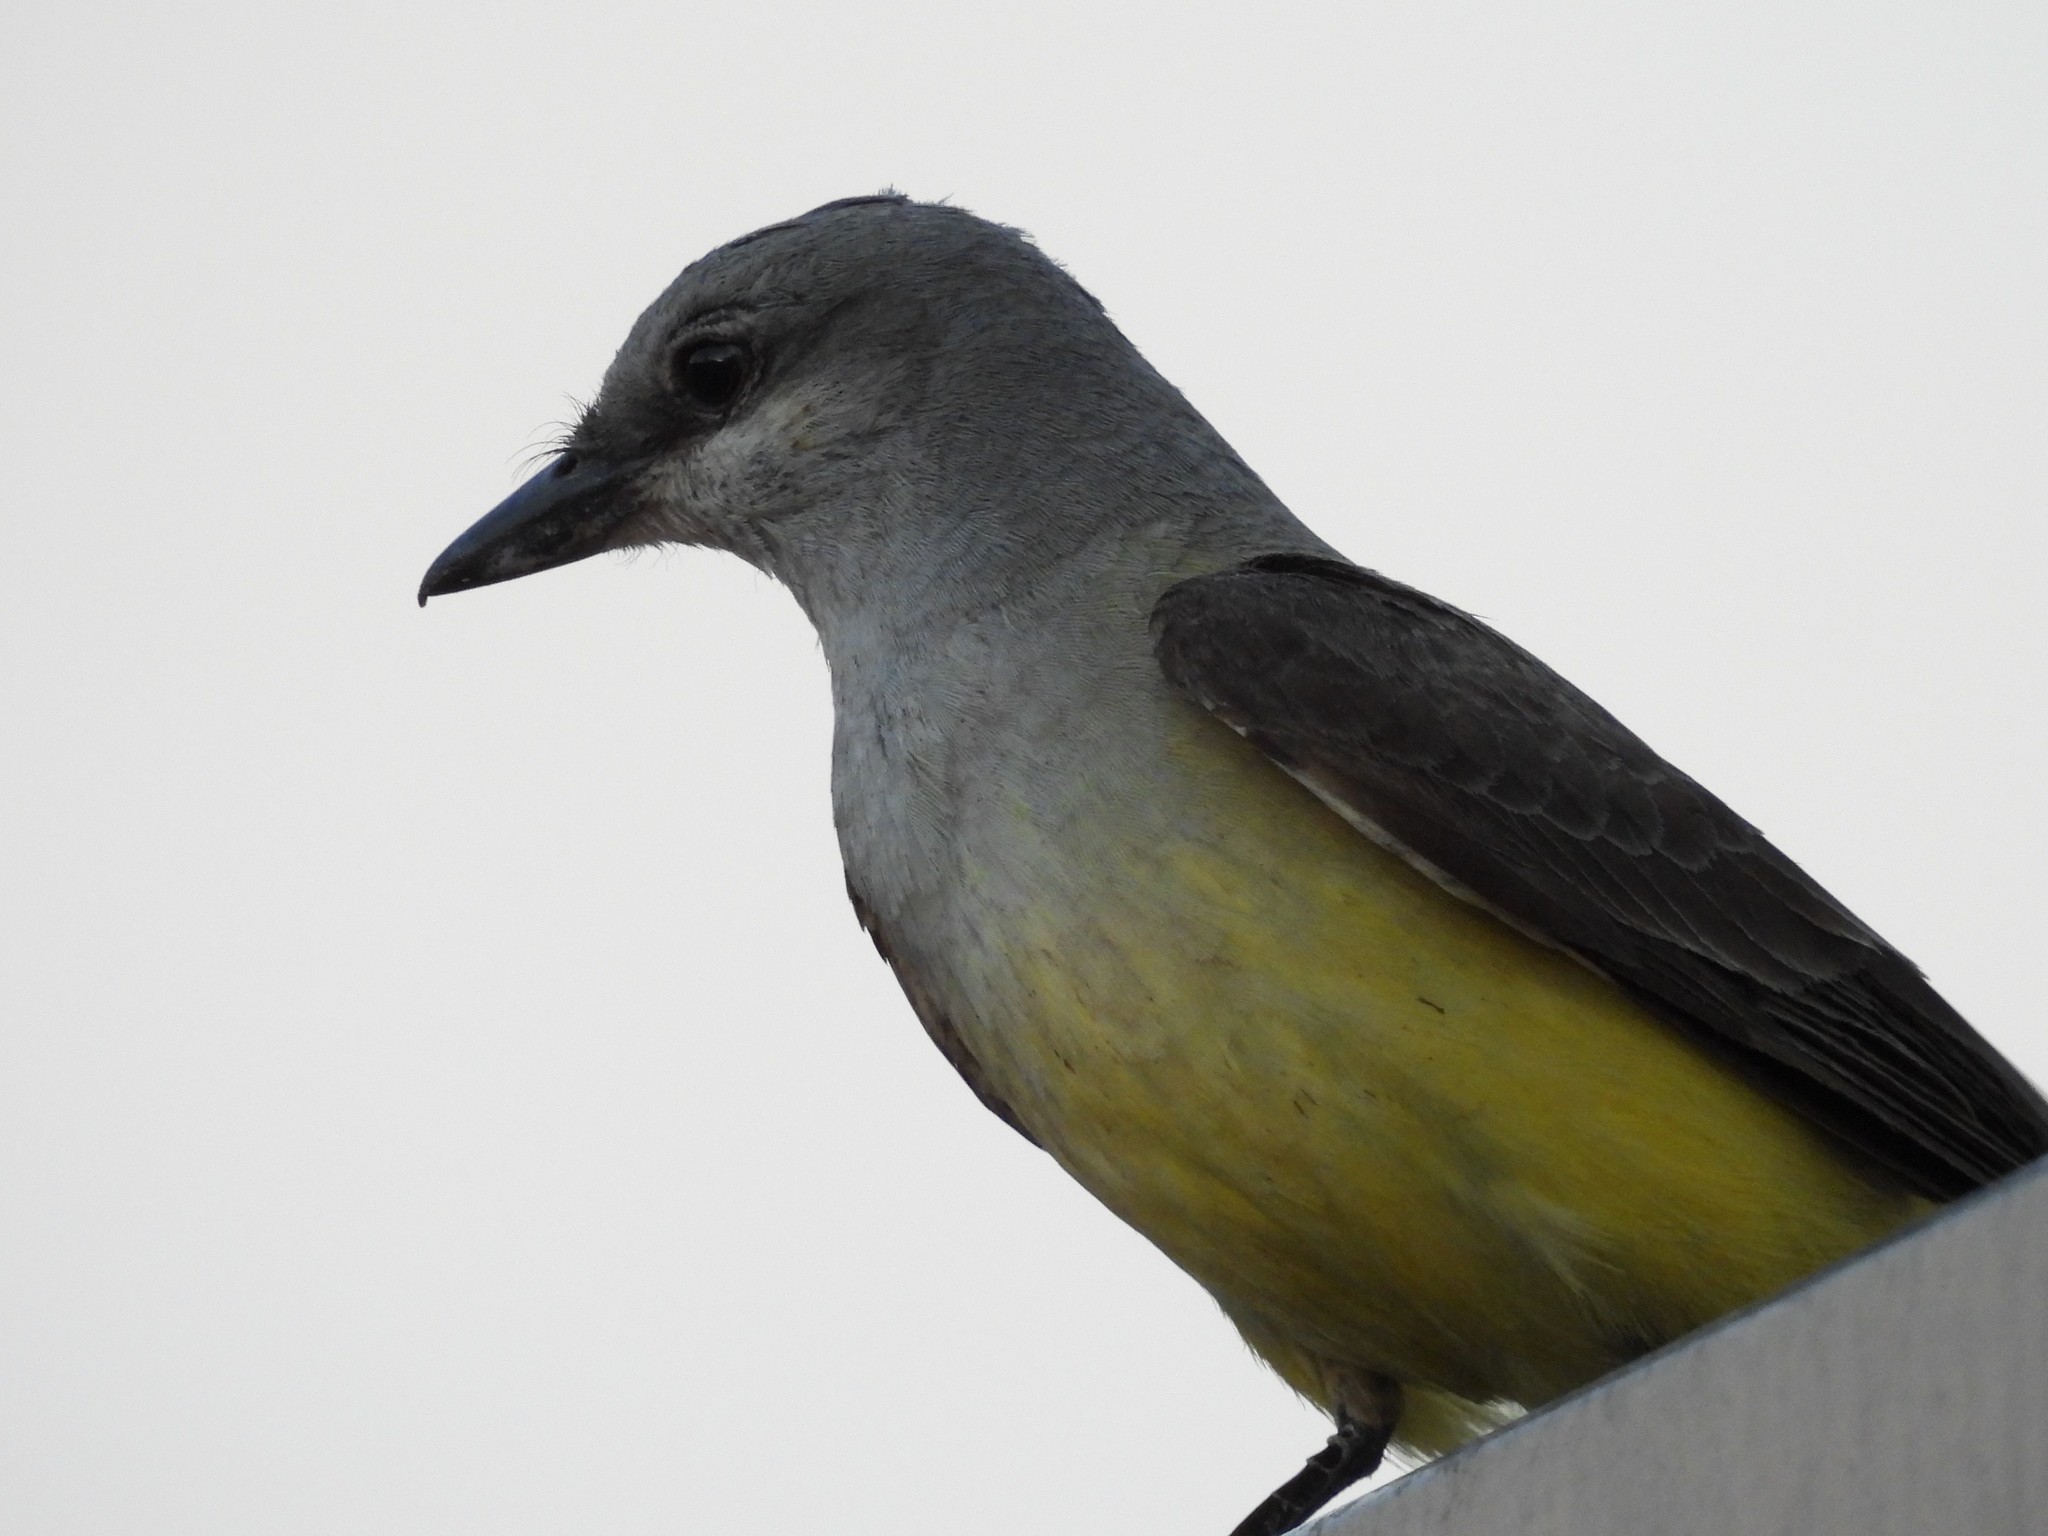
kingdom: Animalia
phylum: Chordata
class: Aves
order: Passeriformes
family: Tyrannidae
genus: Tyrannus
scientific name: Tyrannus verticalis
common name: Western kingbird
